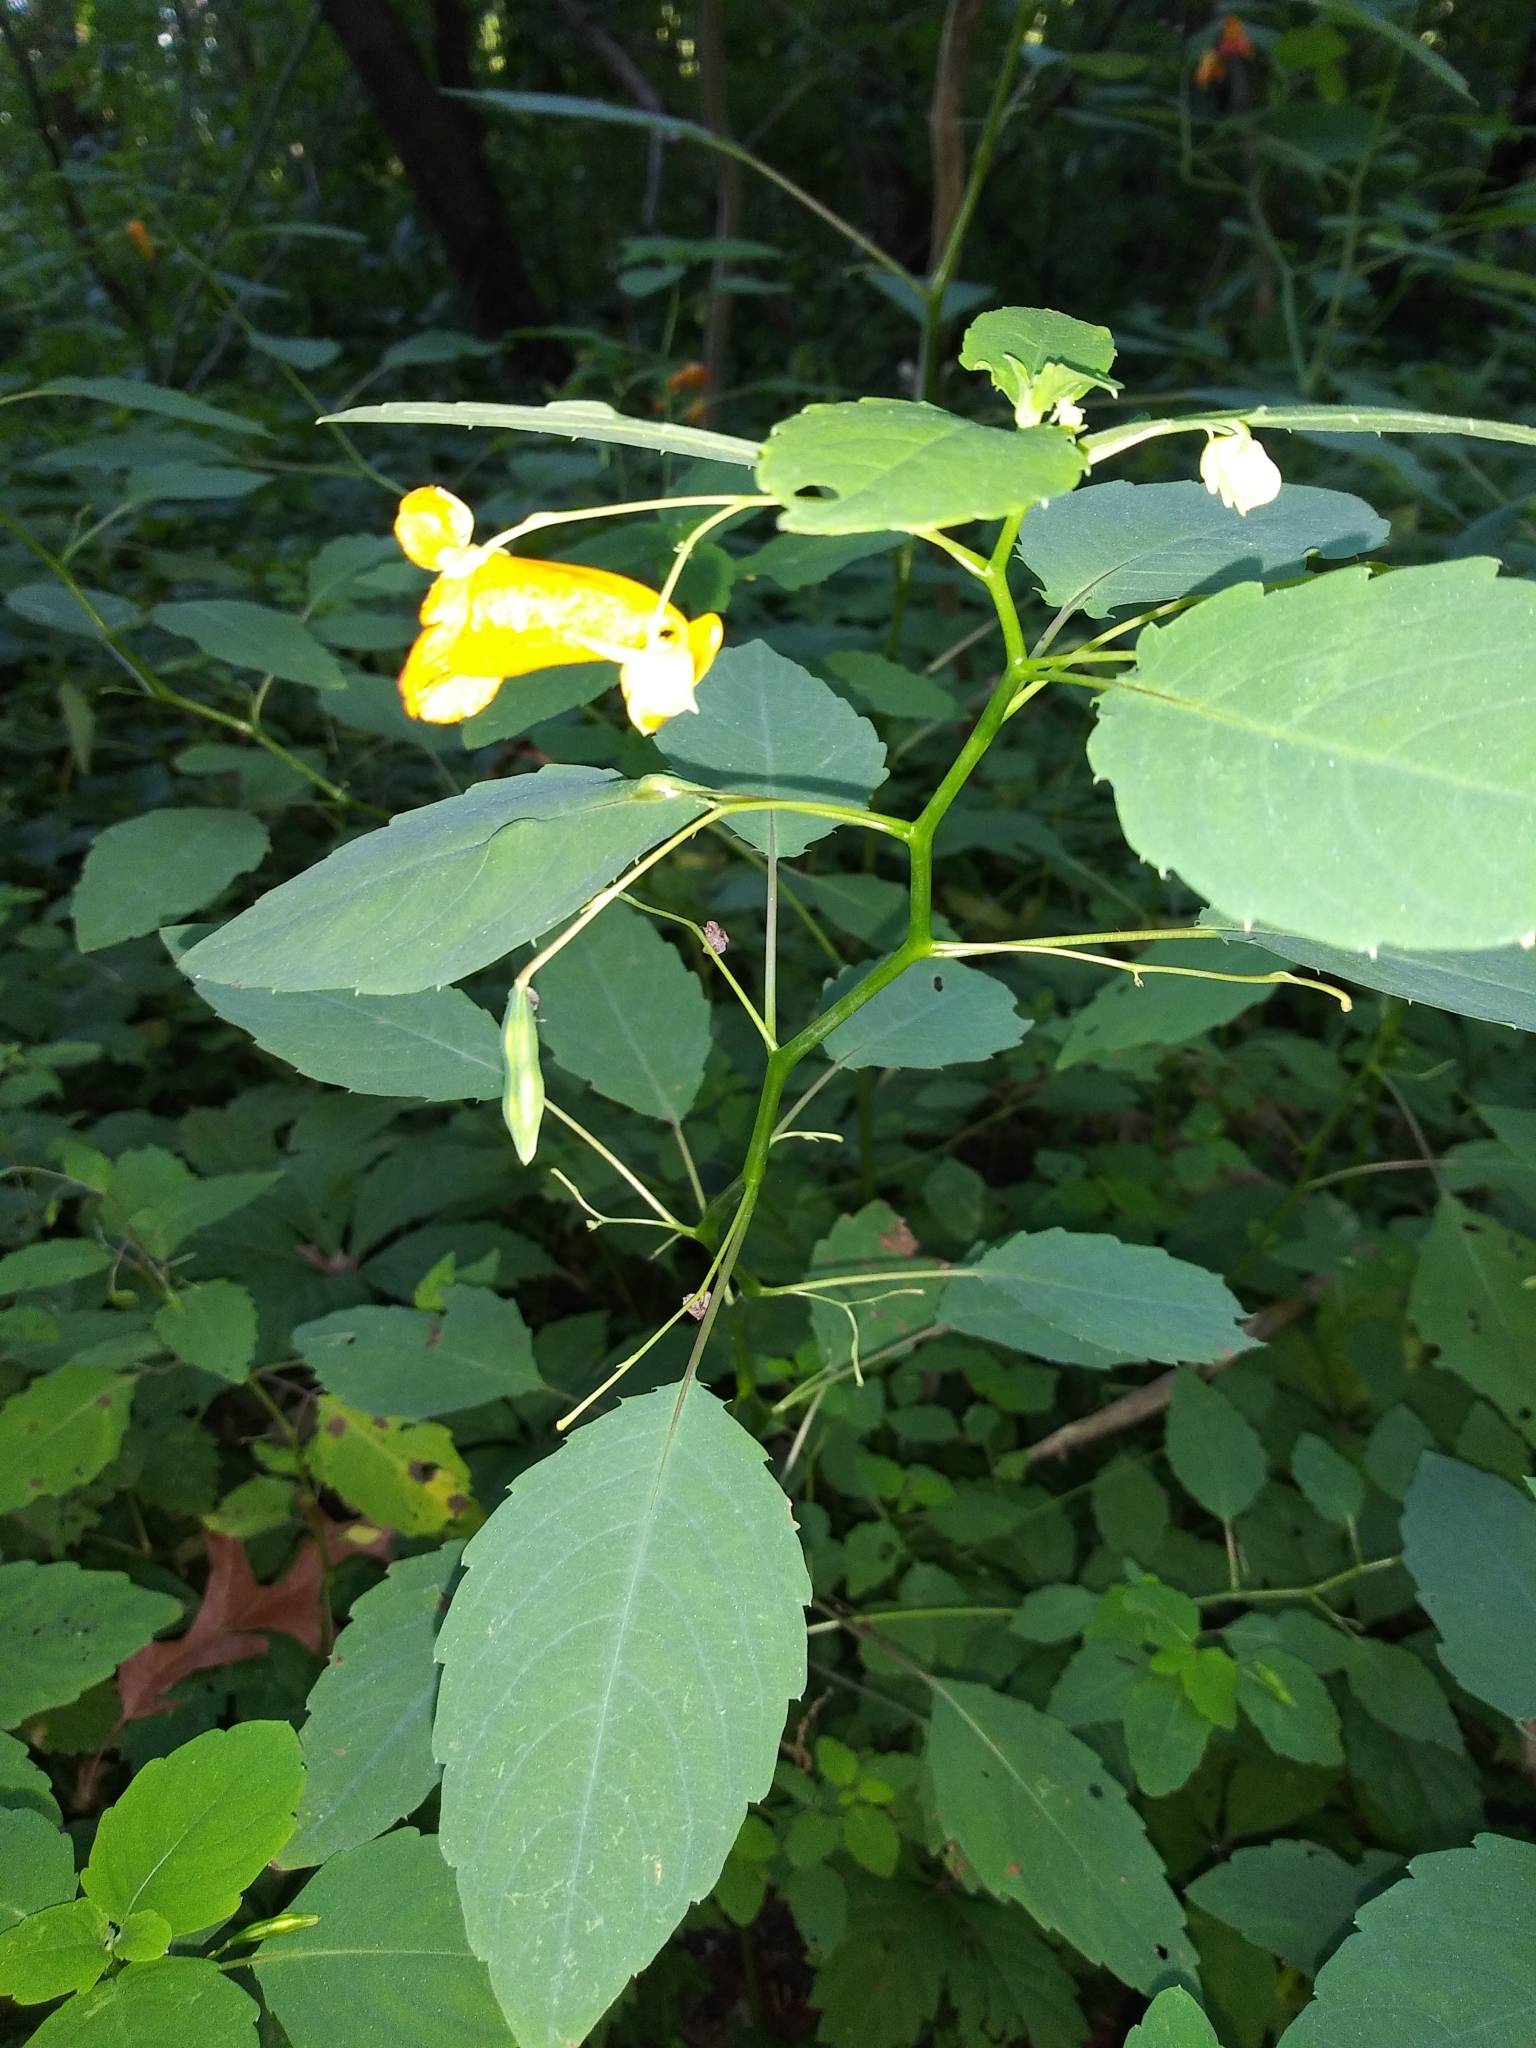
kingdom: Plantae
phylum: Tracheophyta
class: Magnoliopsida
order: Ericales
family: Balsaminaceae
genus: Impatiens
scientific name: Impatiens capensis
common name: Orange balsam
